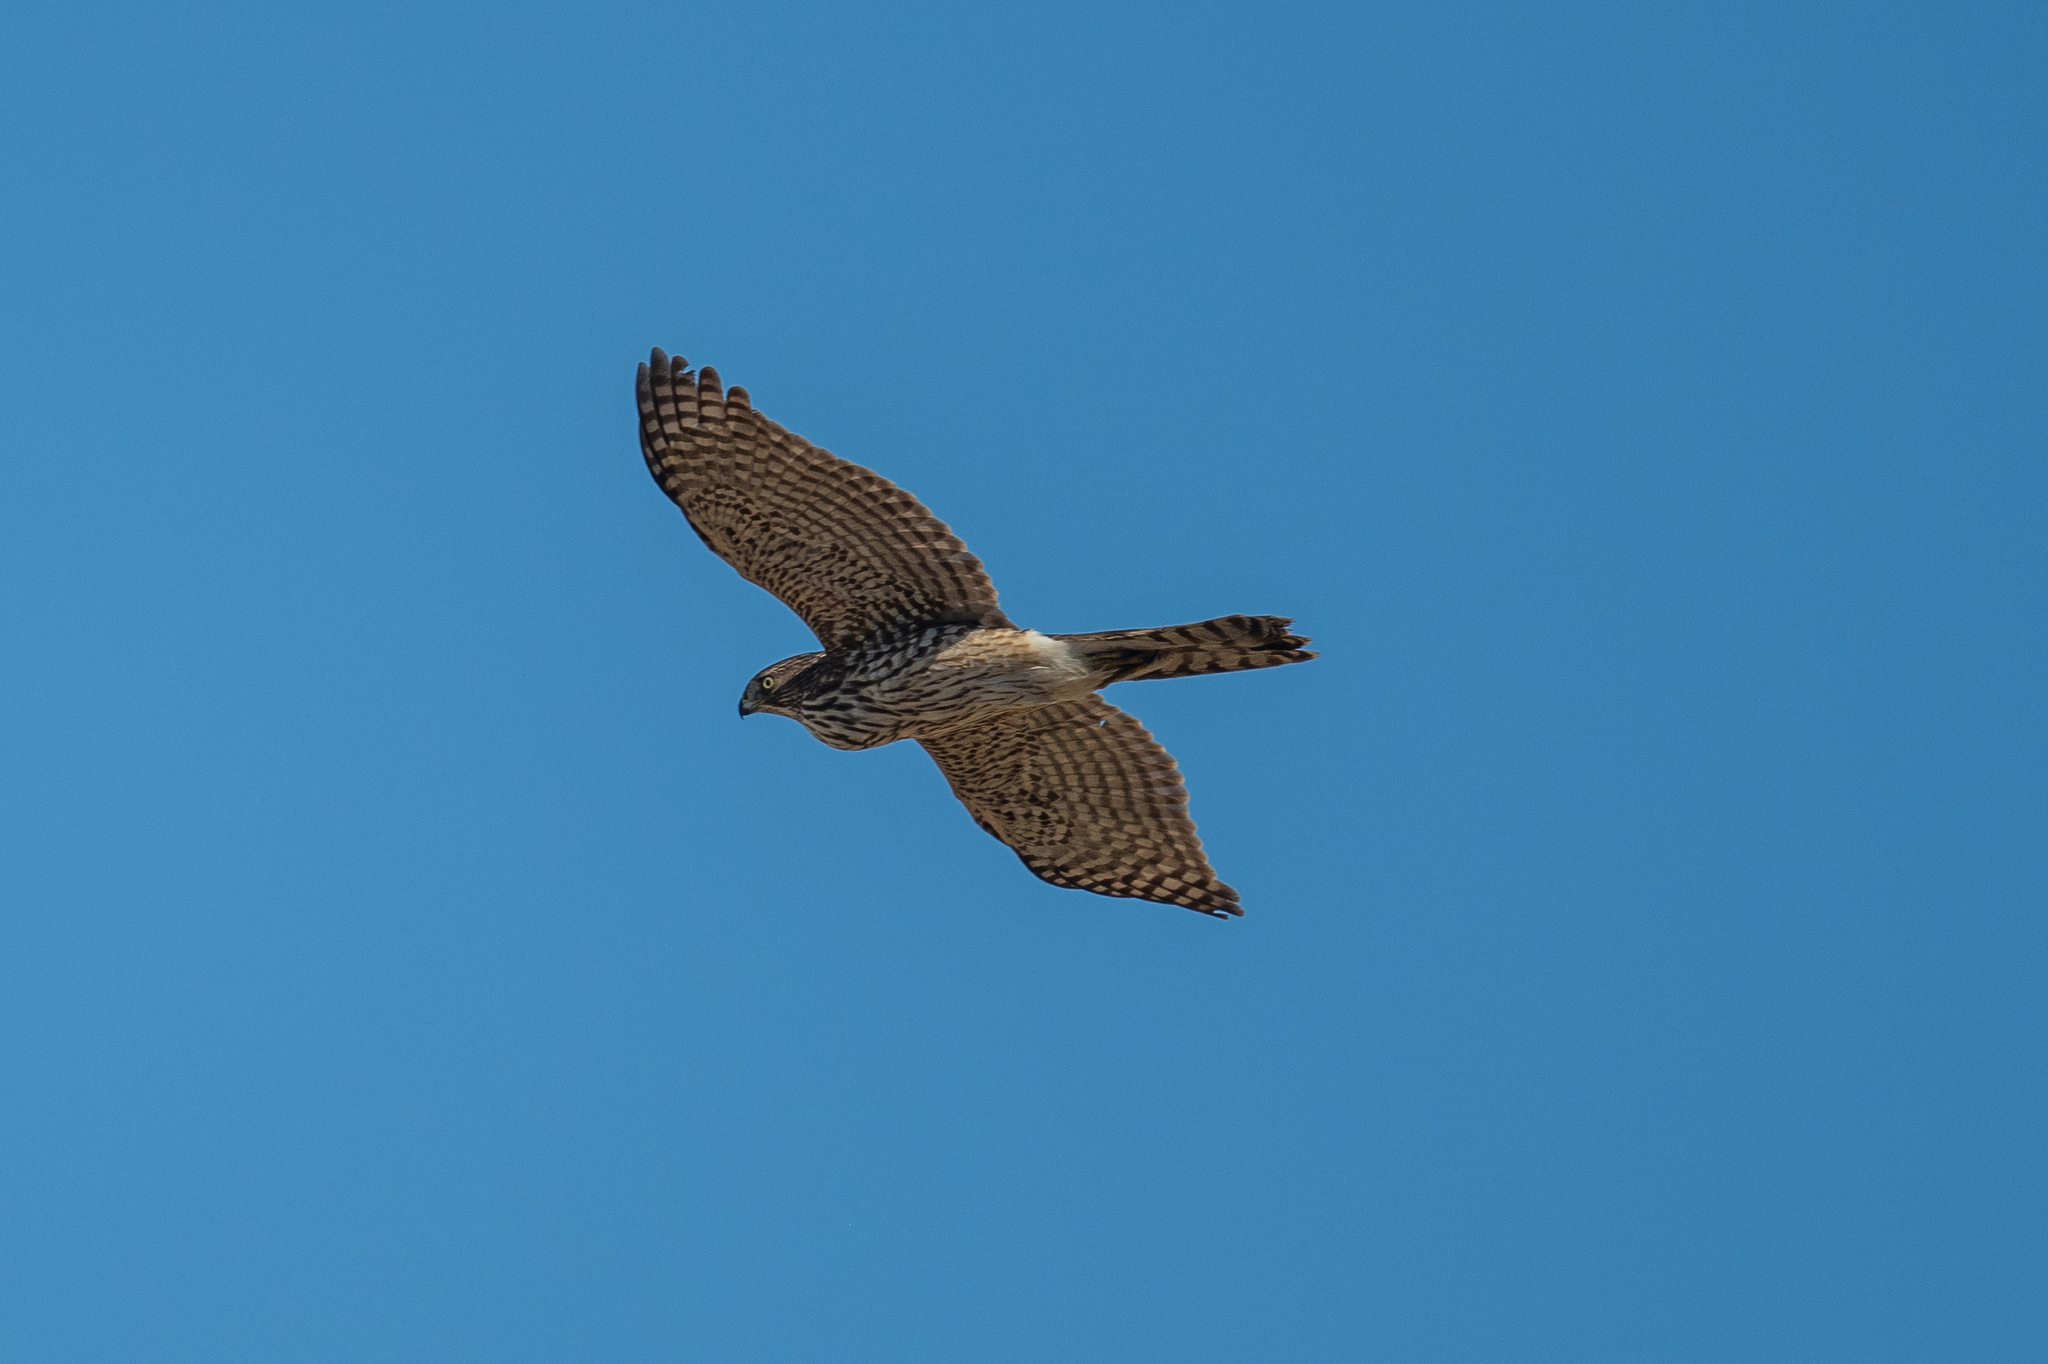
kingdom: Animalia
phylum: Chordata
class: Aves
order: Accipitriformes
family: Accipitridae
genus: Accipiter
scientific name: Accipiter cooperii
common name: Cooper's hawk
